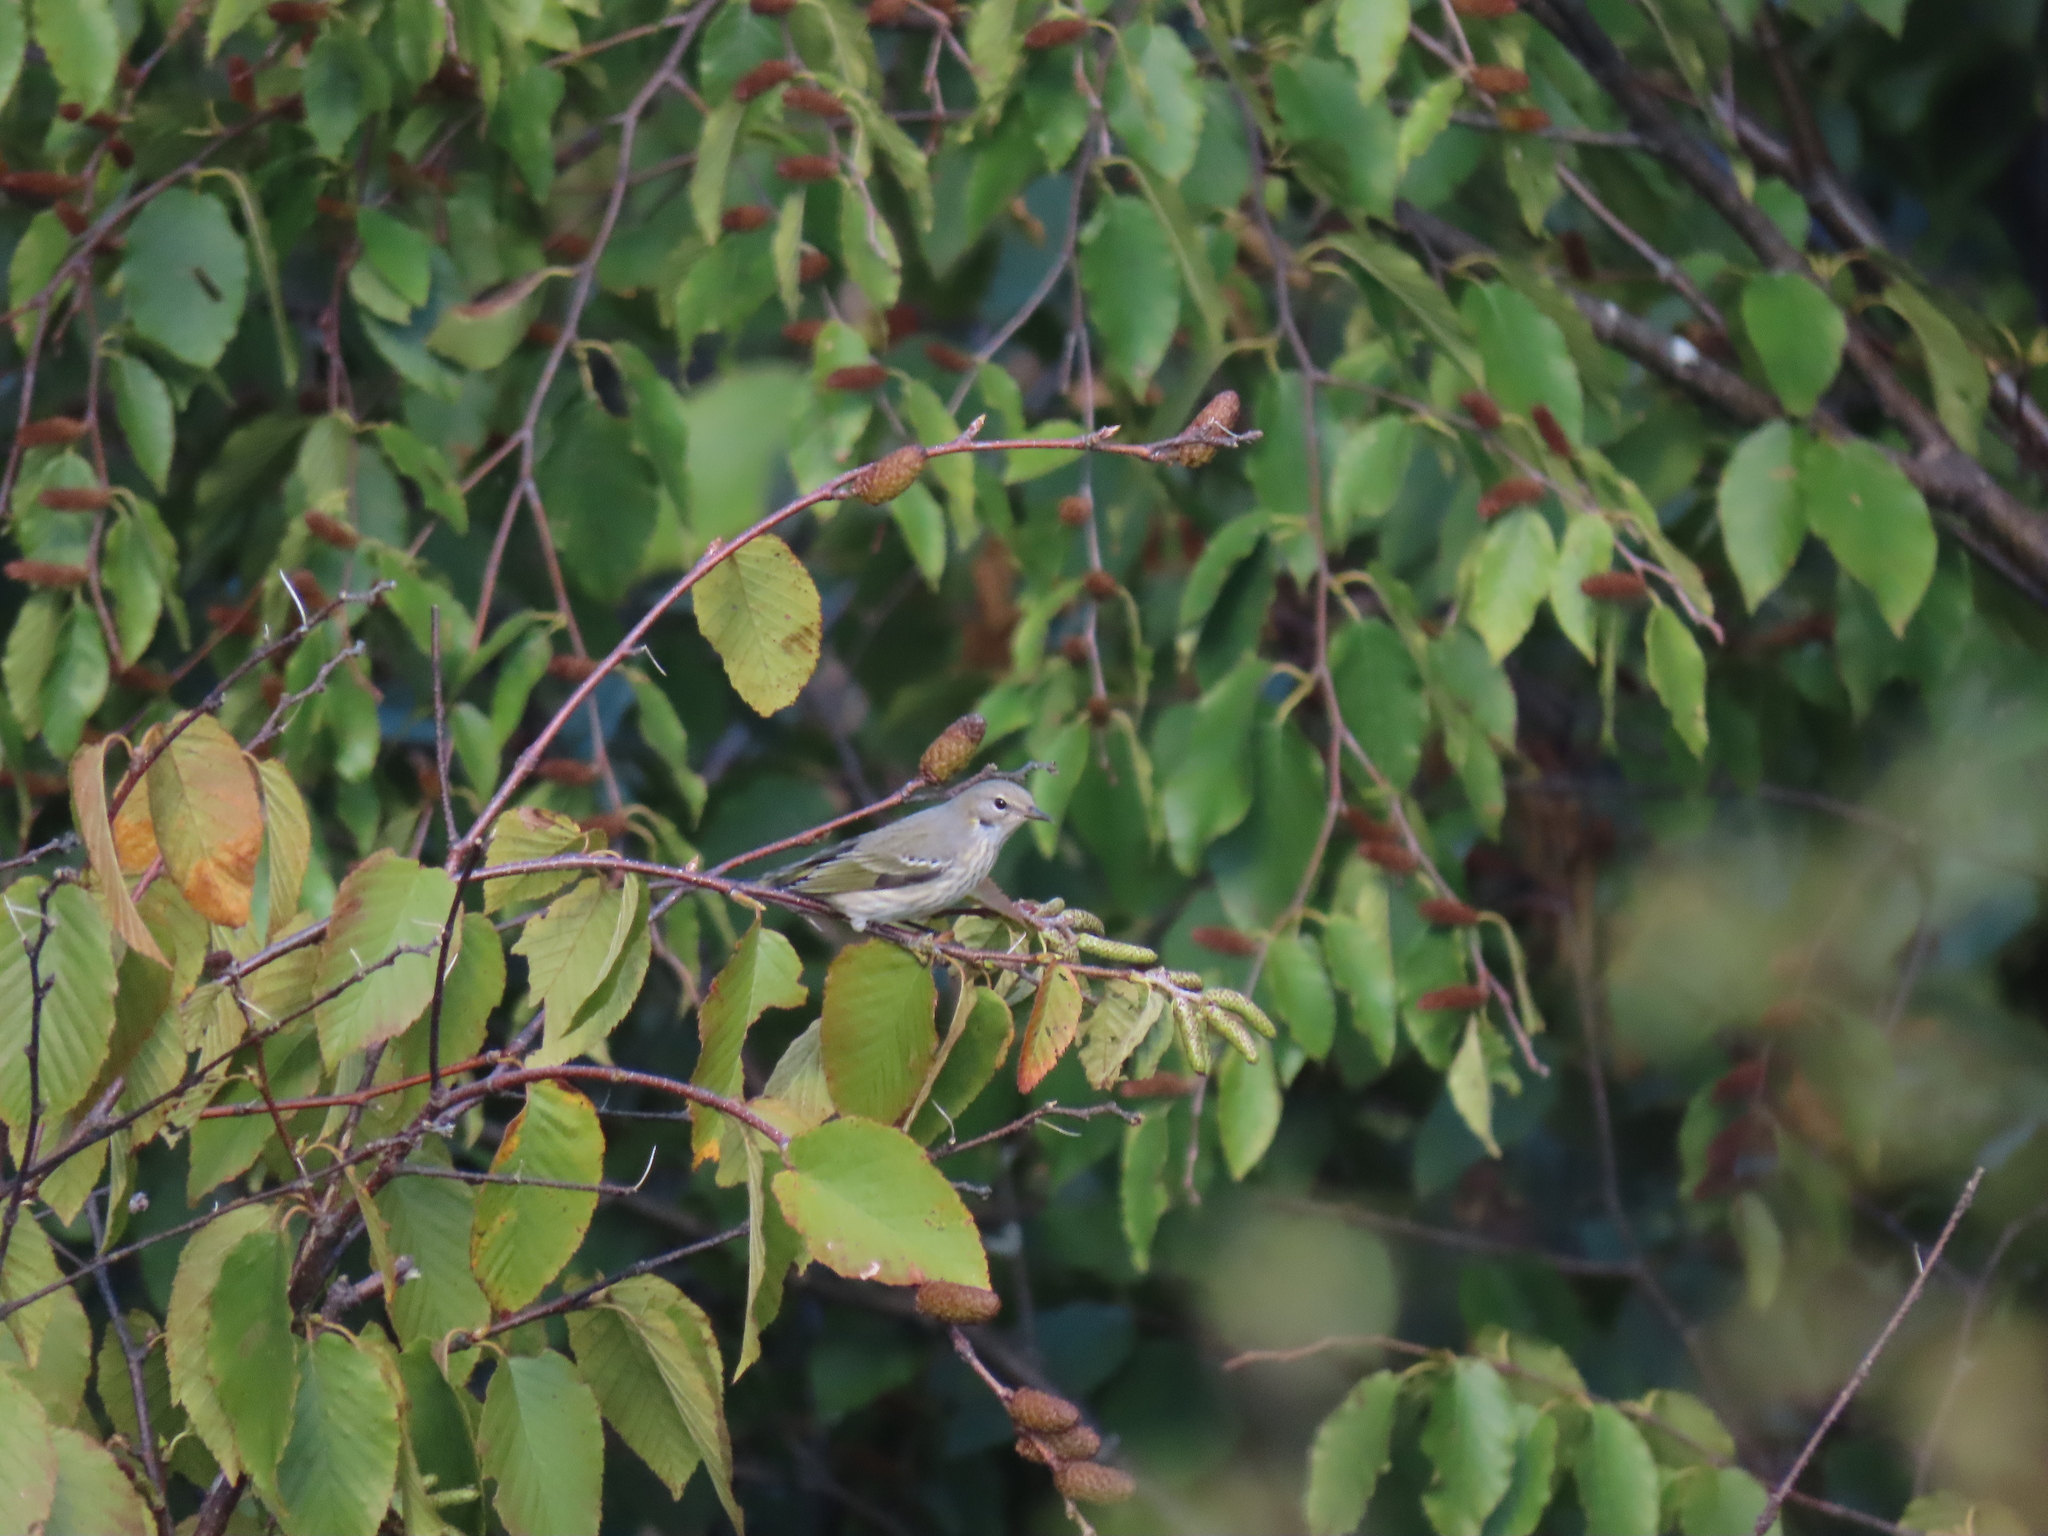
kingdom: Animalia
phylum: Chordata
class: Aves
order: Passeriformes
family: Parulidae
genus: Setophaga
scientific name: Setophaga tigrina
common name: Cape may warbler
